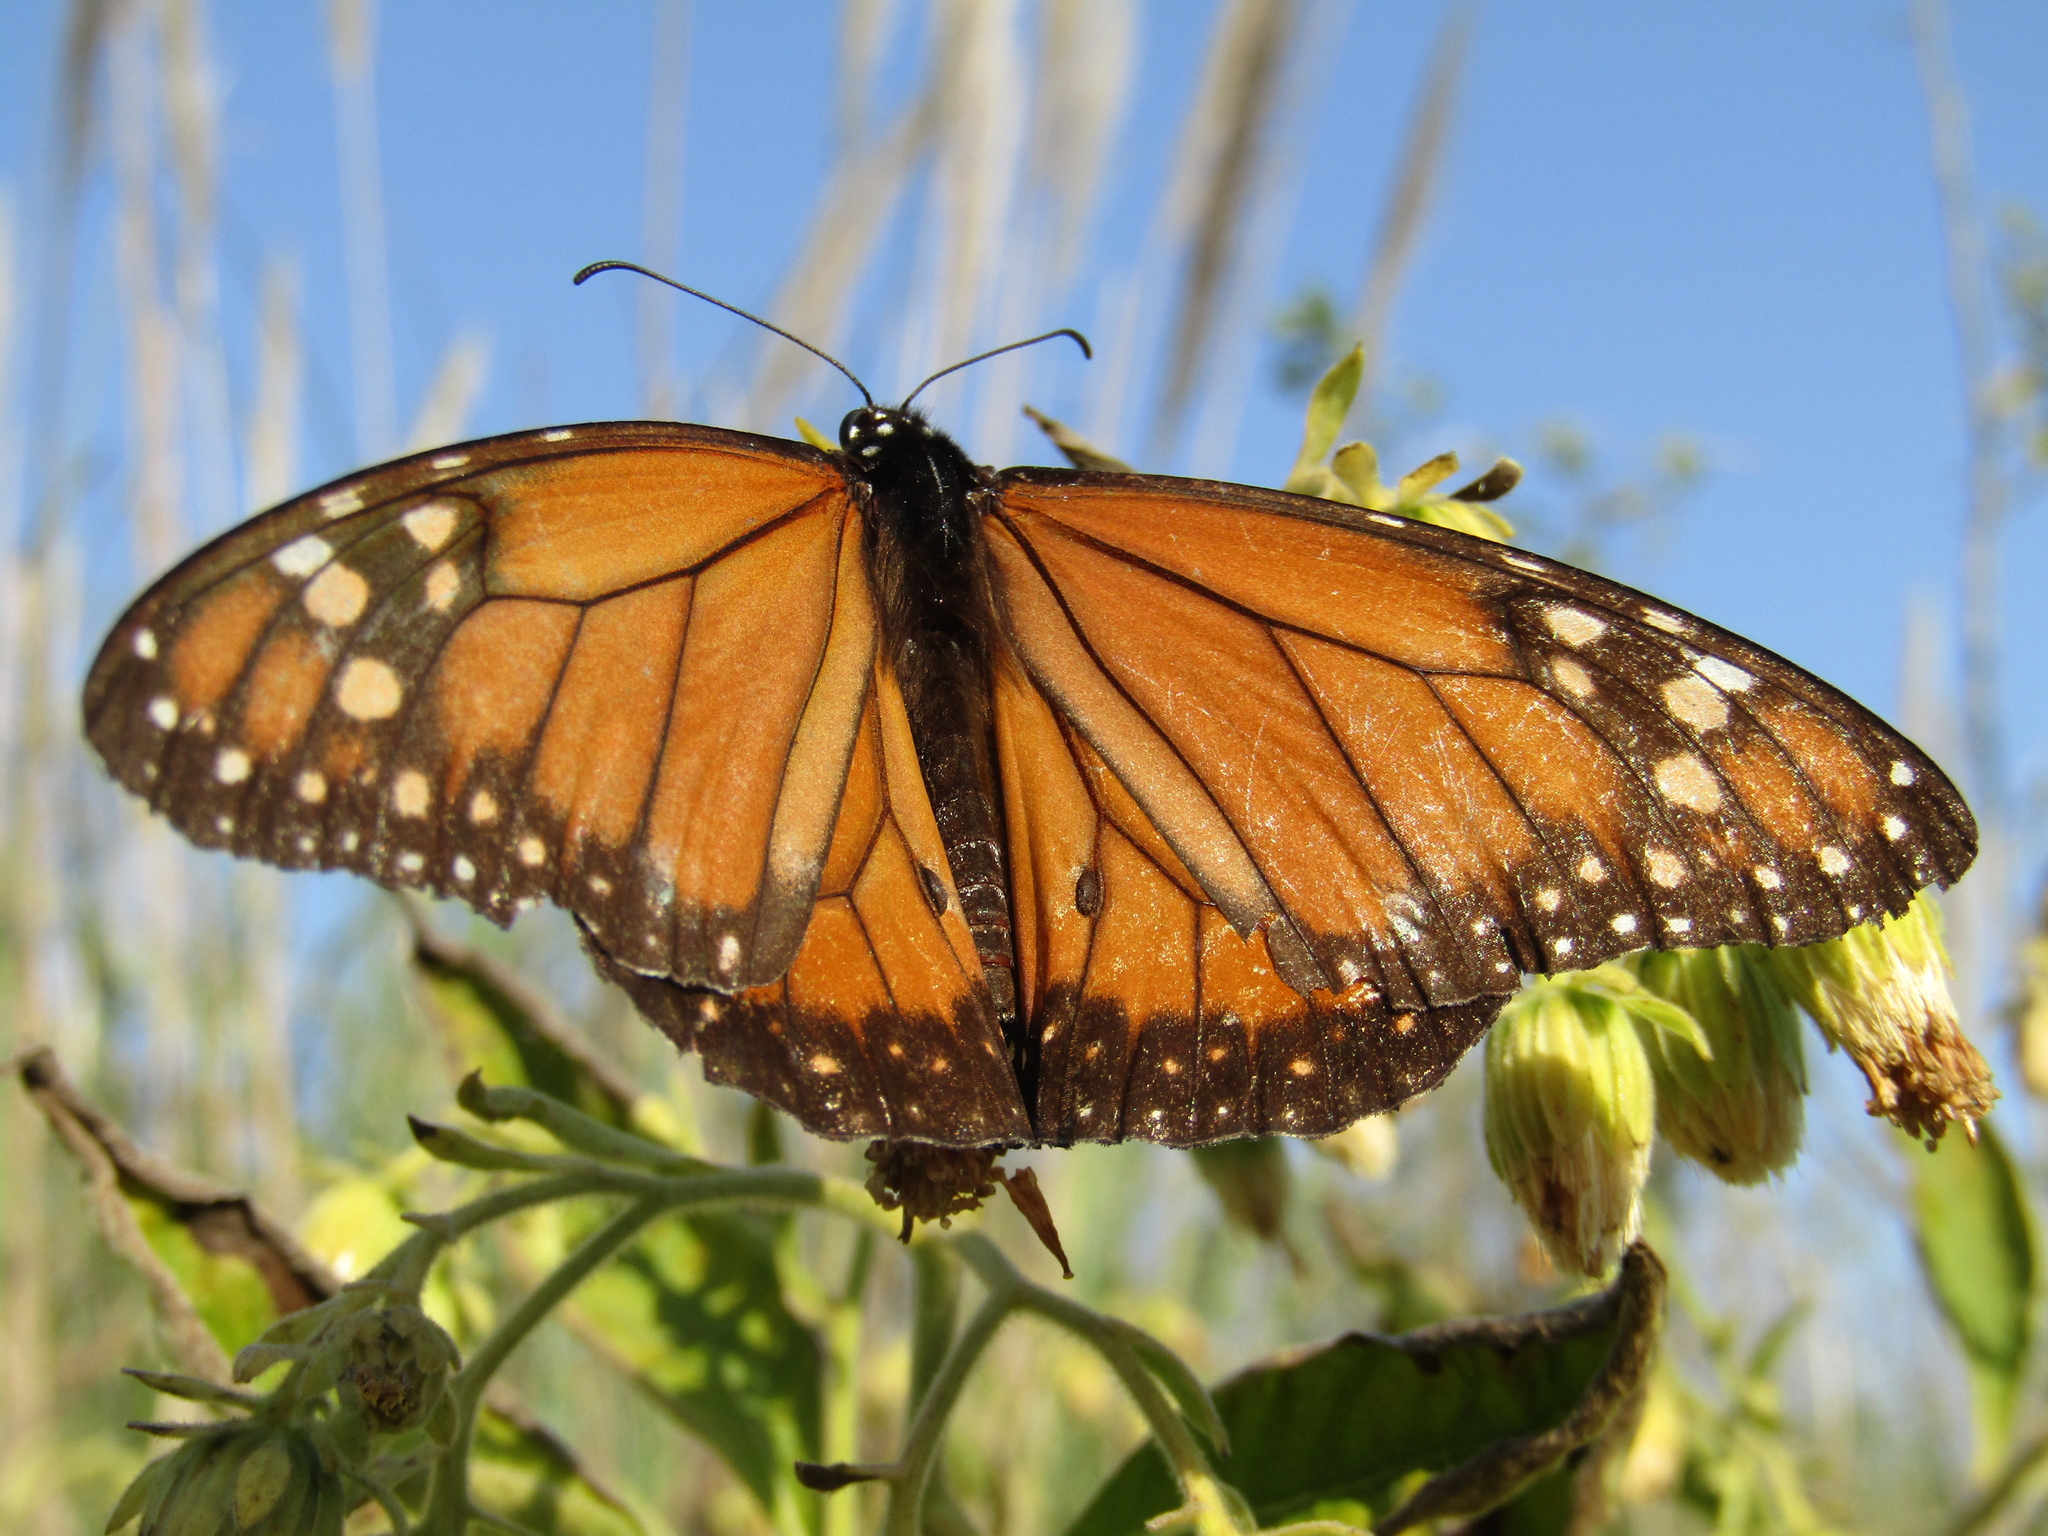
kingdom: Animalia
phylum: Arthropoda
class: Insecta
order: Lepidoptera
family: Nymphalidae
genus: Danaus
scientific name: Danaus erippus
